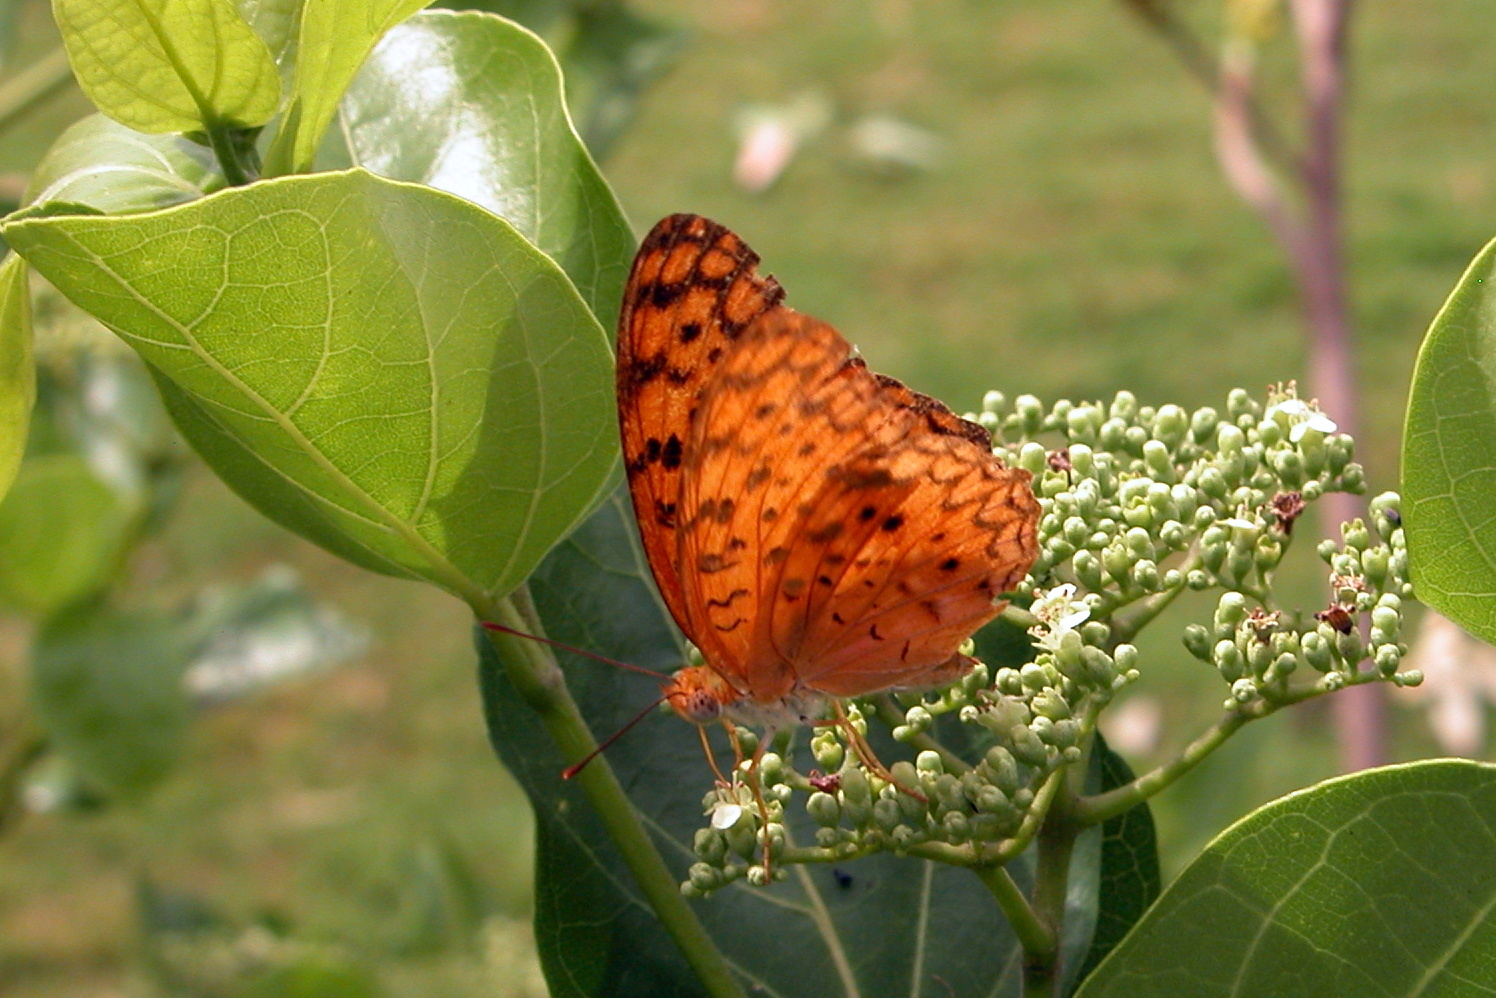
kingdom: Animalia
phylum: Arthropoda
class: Insecta
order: Lepidoptera
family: Nymphalidae
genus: Phalanta
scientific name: Phalanta phalantha
